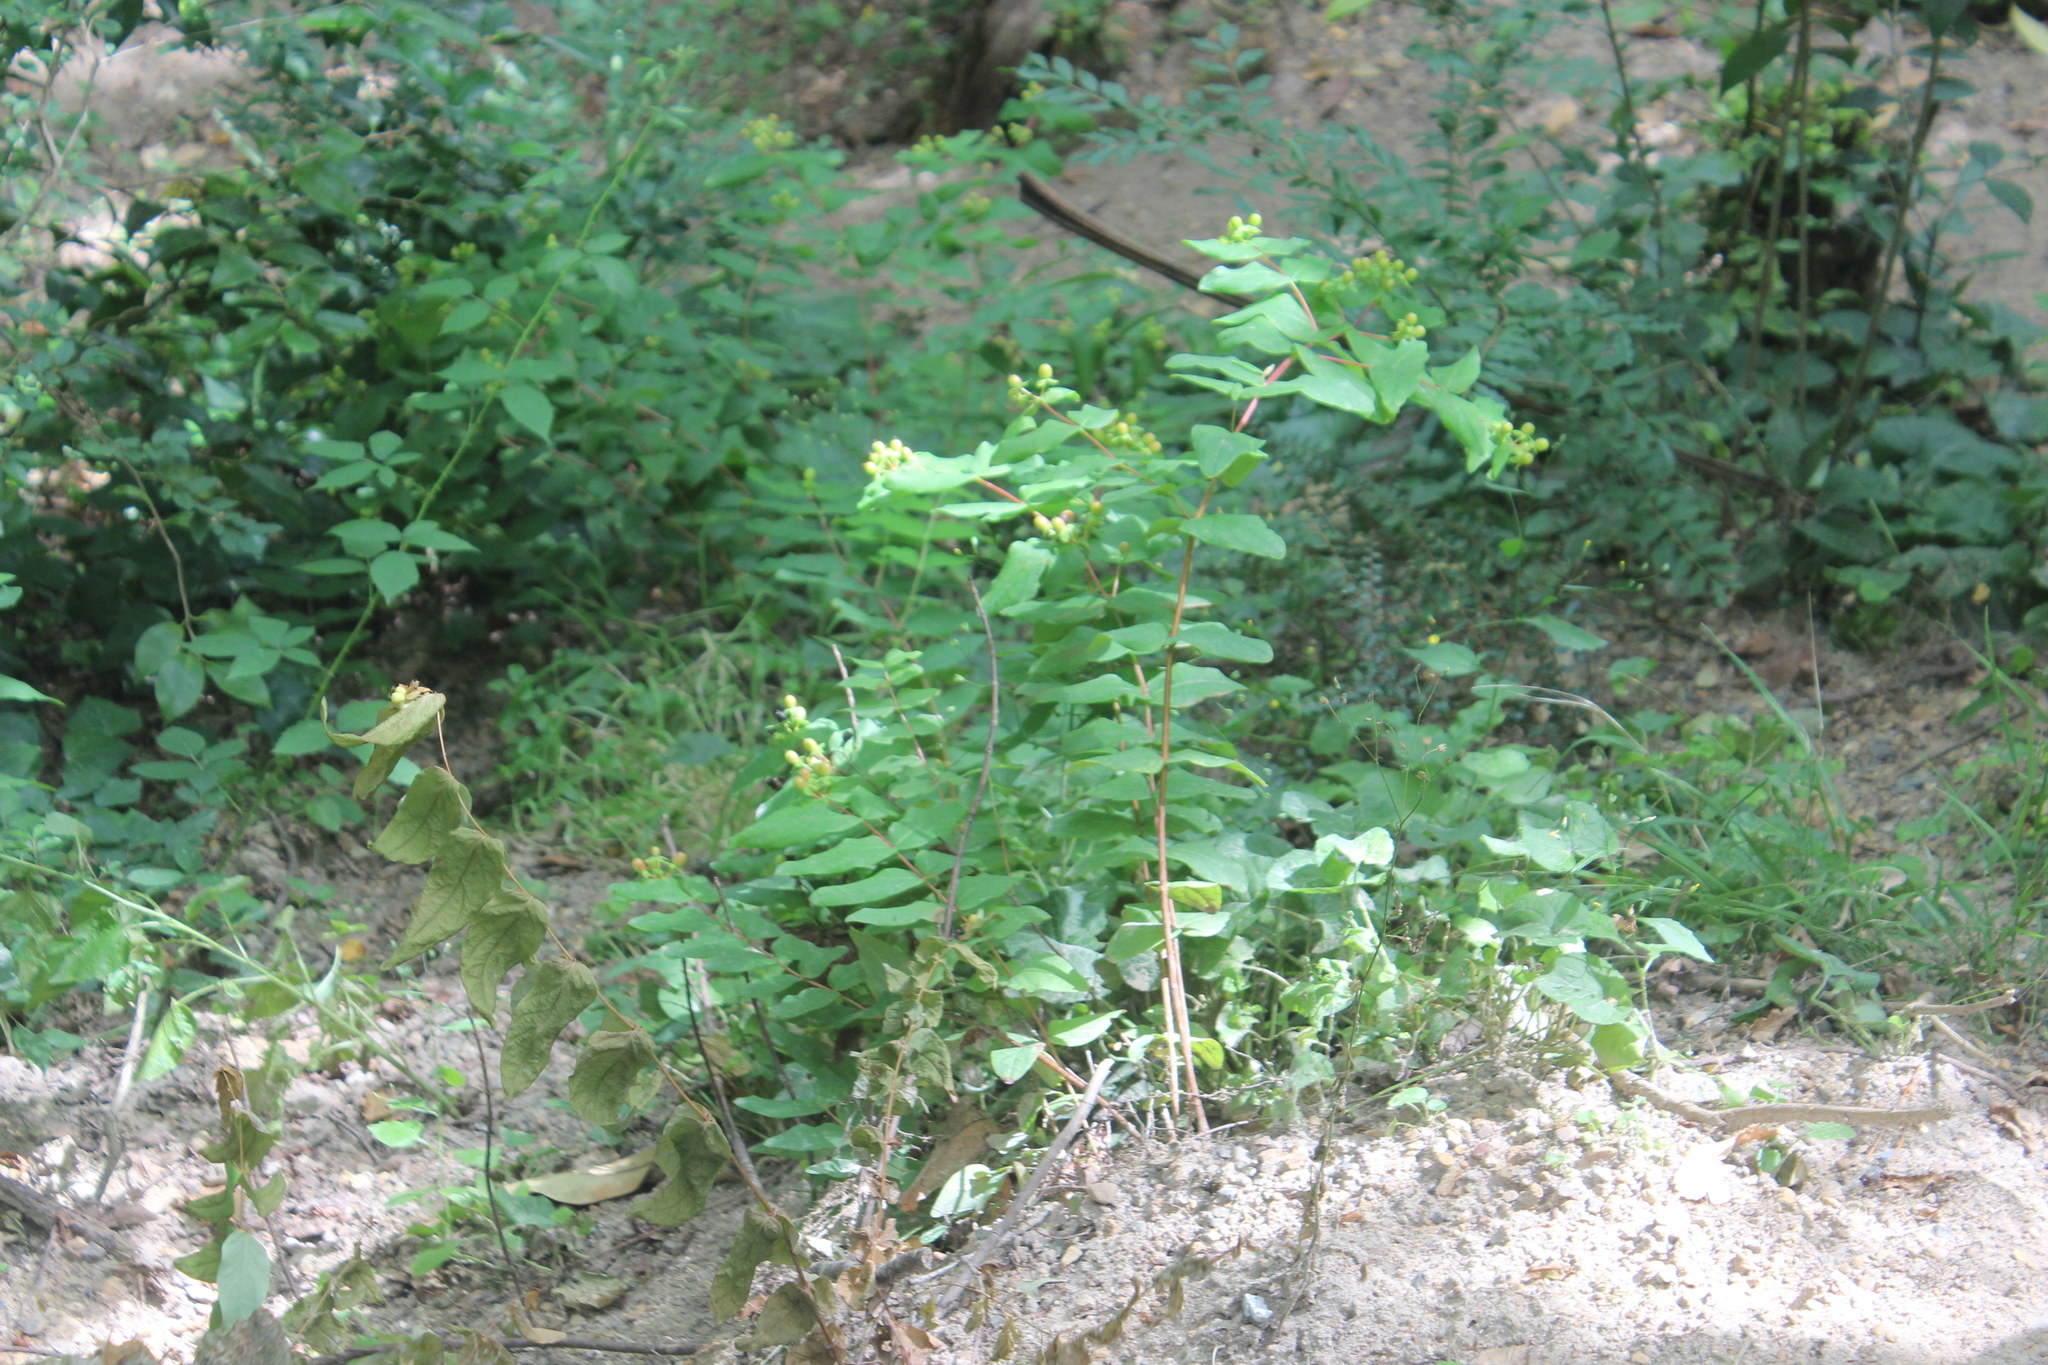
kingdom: Plantae
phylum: Tracheophyta
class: Magnoliopsida
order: Malpighiales
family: Hypericaceae
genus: Hypericum
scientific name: Hypericum androsaemum
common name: Sweet-amber
